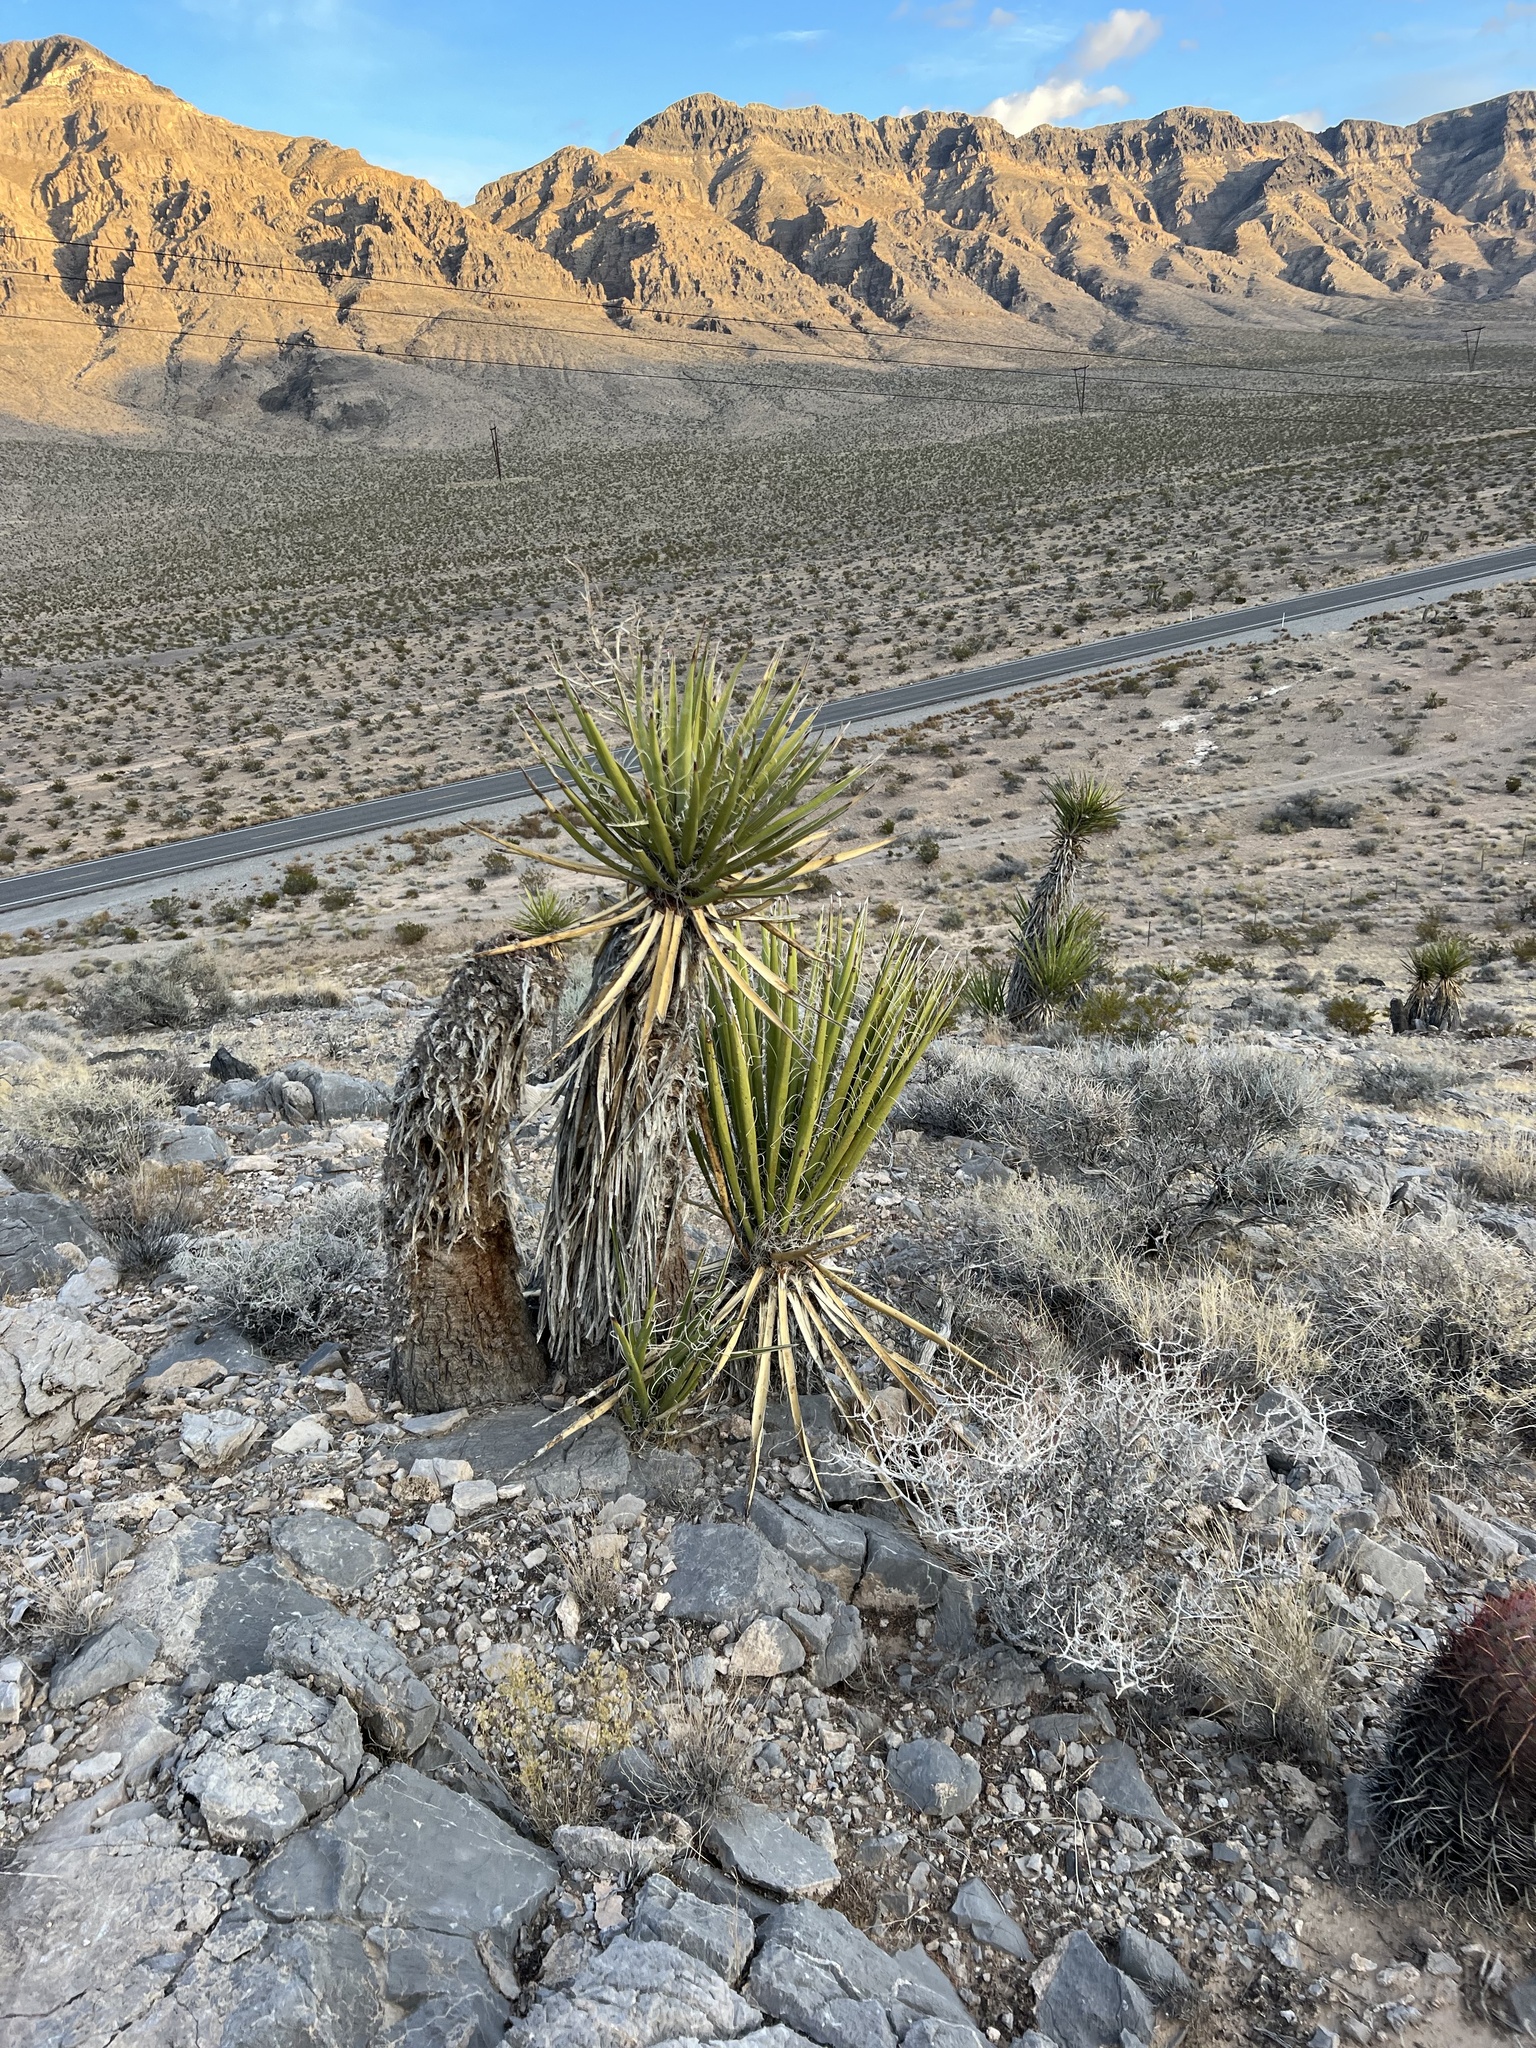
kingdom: Plantae
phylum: Tracheophyta
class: Liliopsida
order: Asparagales
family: Asparagaceae
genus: Yucca
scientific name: Yucca schidigera
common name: Mojave yucca
